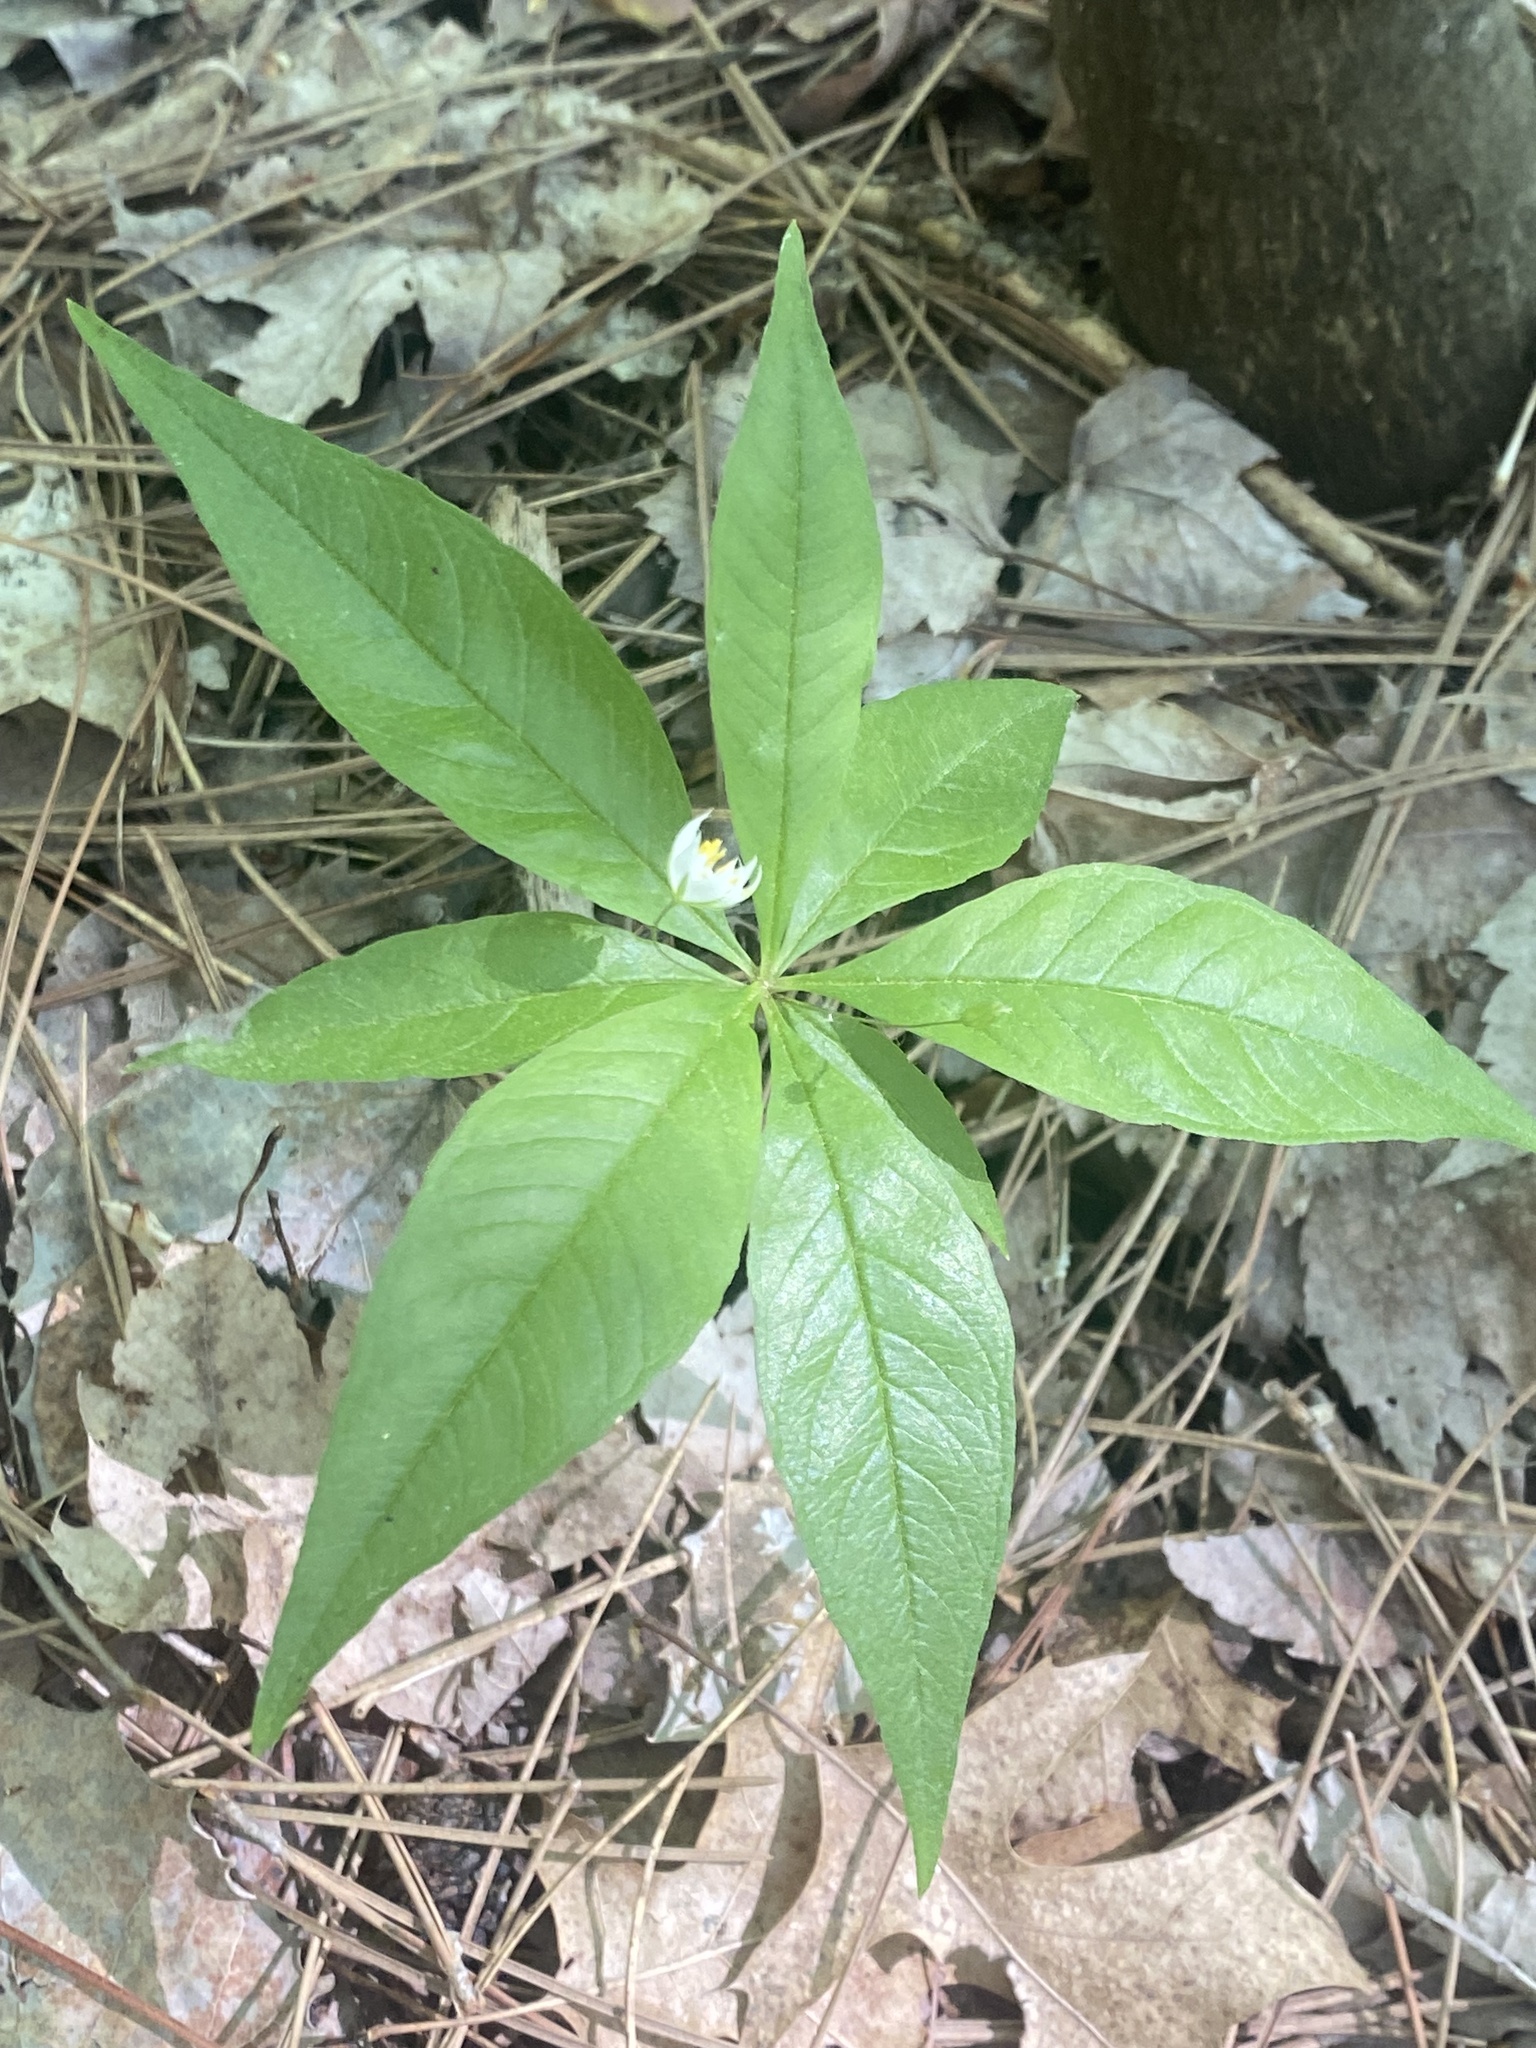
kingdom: Plantae
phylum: Tracheophyta
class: Magnoliopsida
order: Ericales
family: Primulaceae
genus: Lysimachia
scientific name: Lysimachia borealis
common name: American starflower
